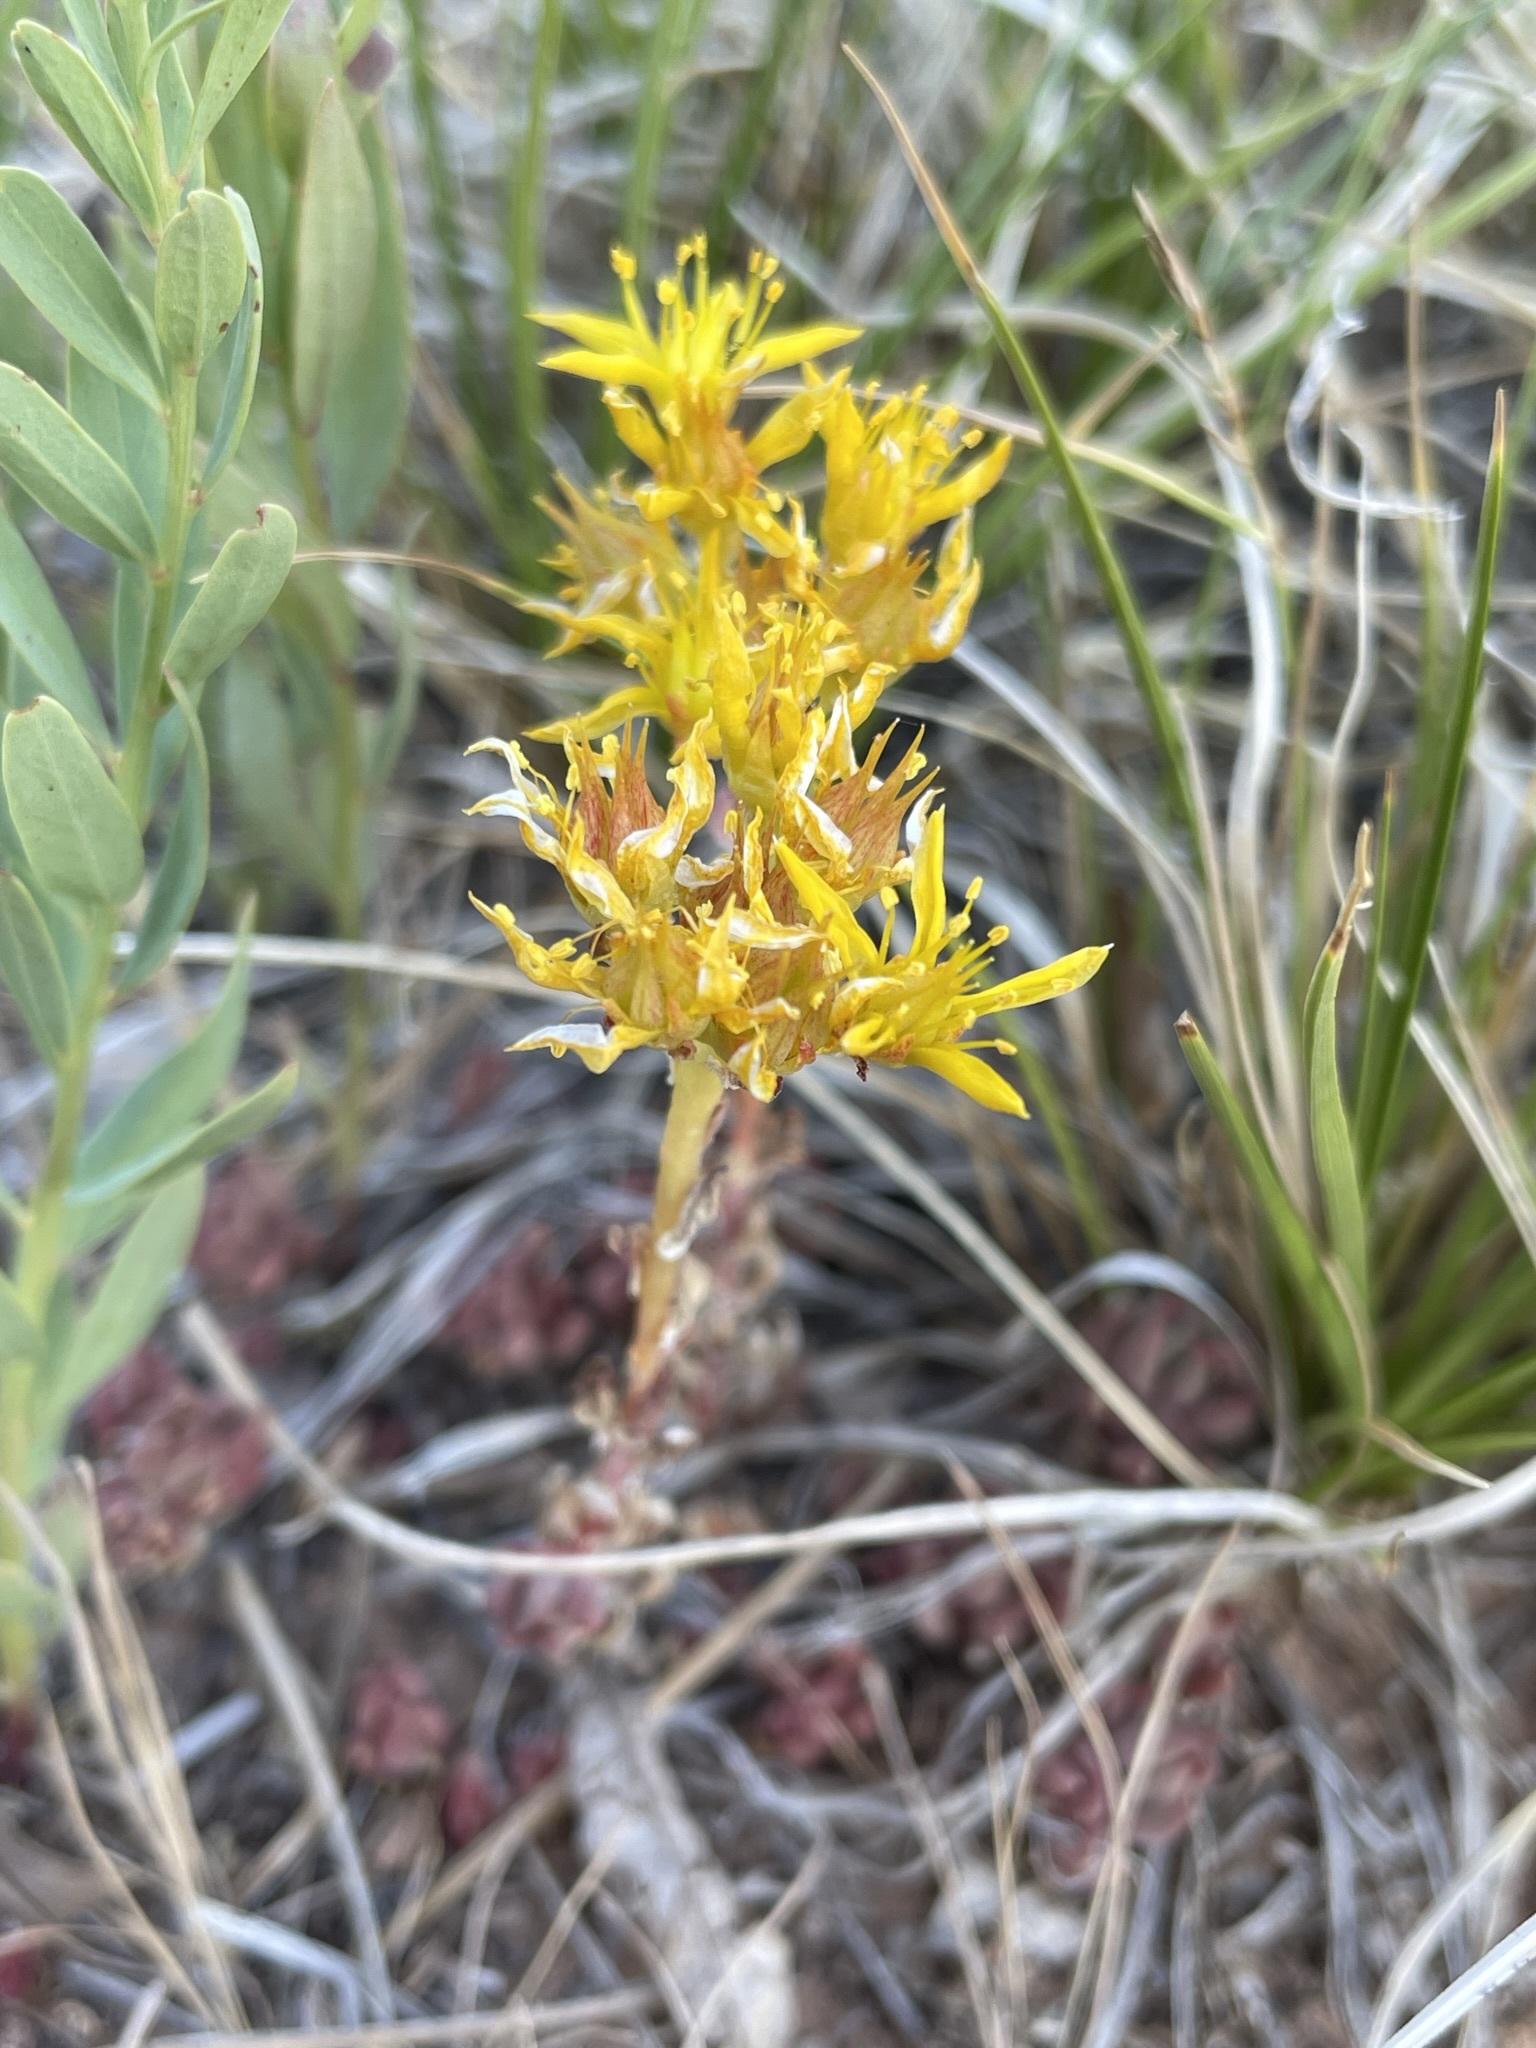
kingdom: Plantae
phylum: Tracheophyta
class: Magnoliopsida
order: Saxifragales
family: Crassulaceae
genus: Sedum
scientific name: Sedum lanceolatum
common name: Common stonecrop
